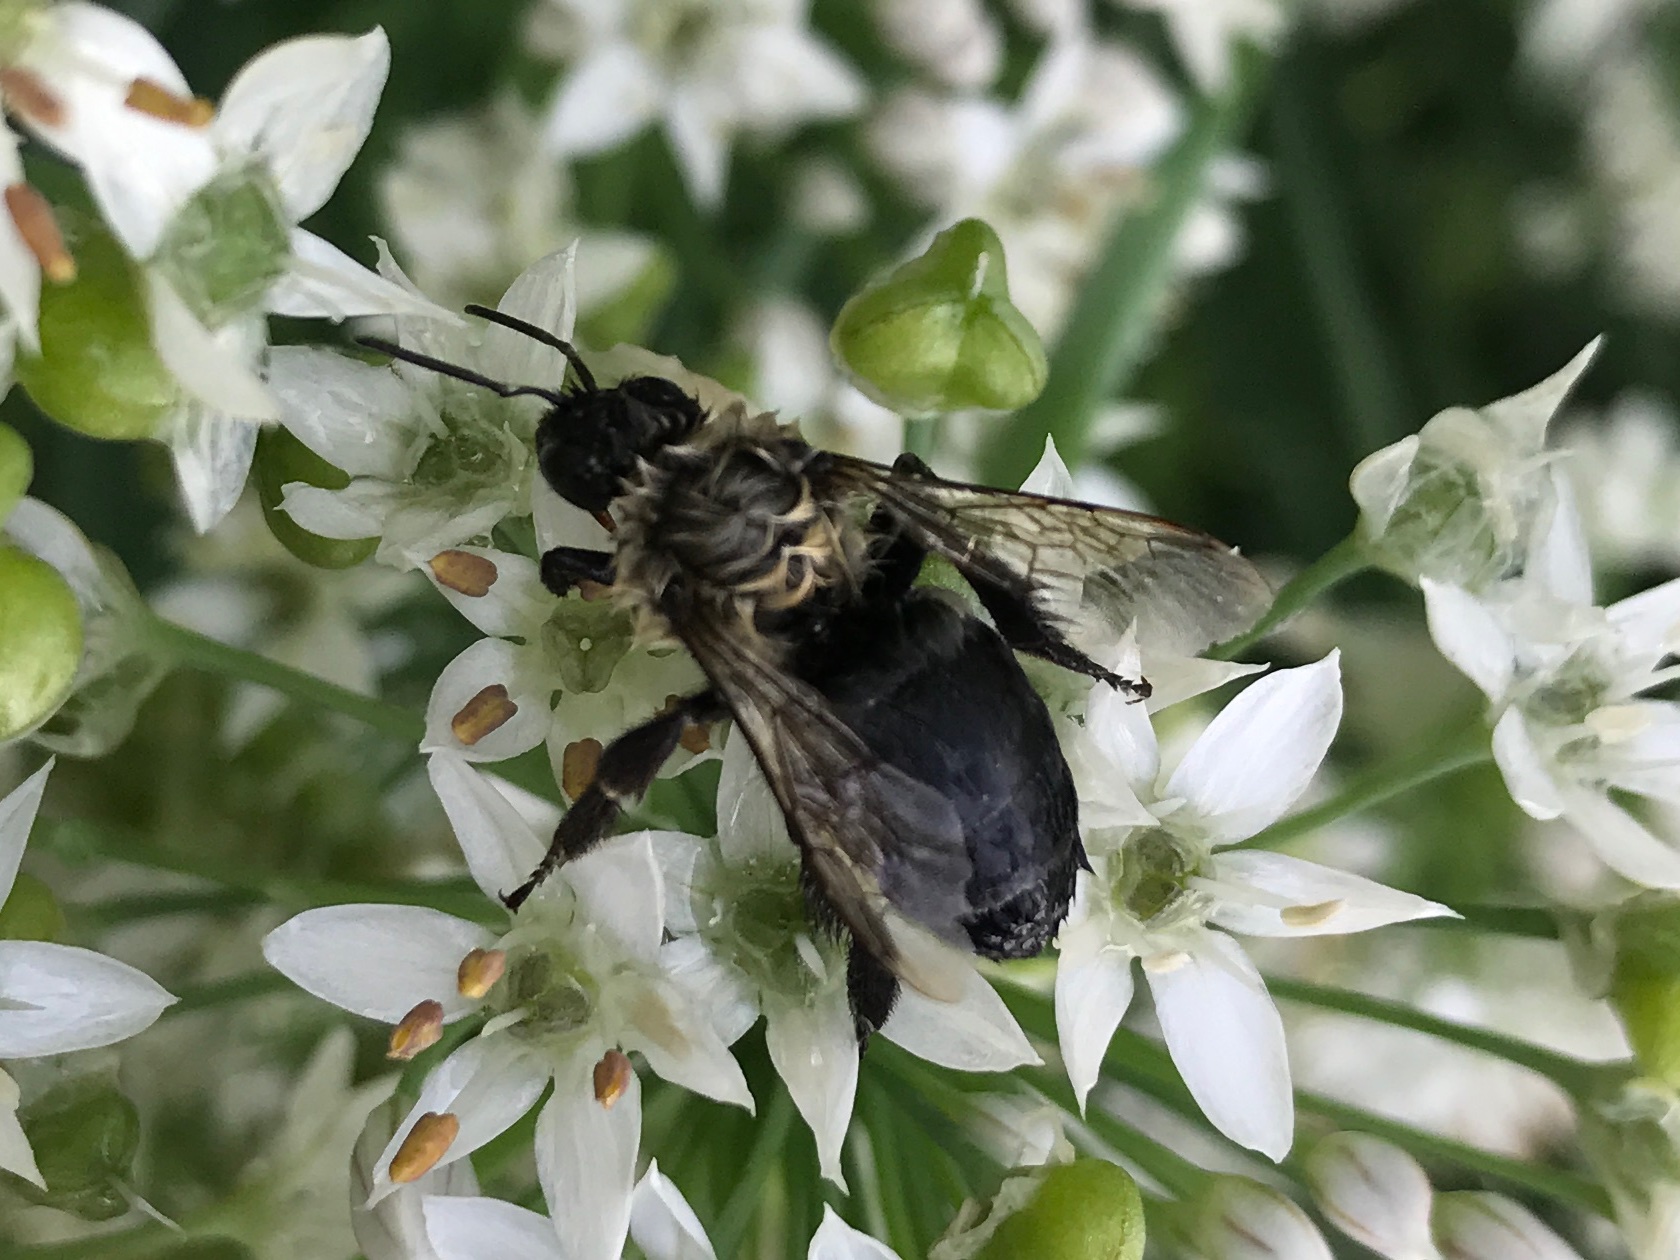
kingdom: Animalia
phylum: Arthropoda
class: Insecta
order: Hymenoptera
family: Apidae
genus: Bombus
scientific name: Bombus impatiens
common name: Common eastern bumble bee
